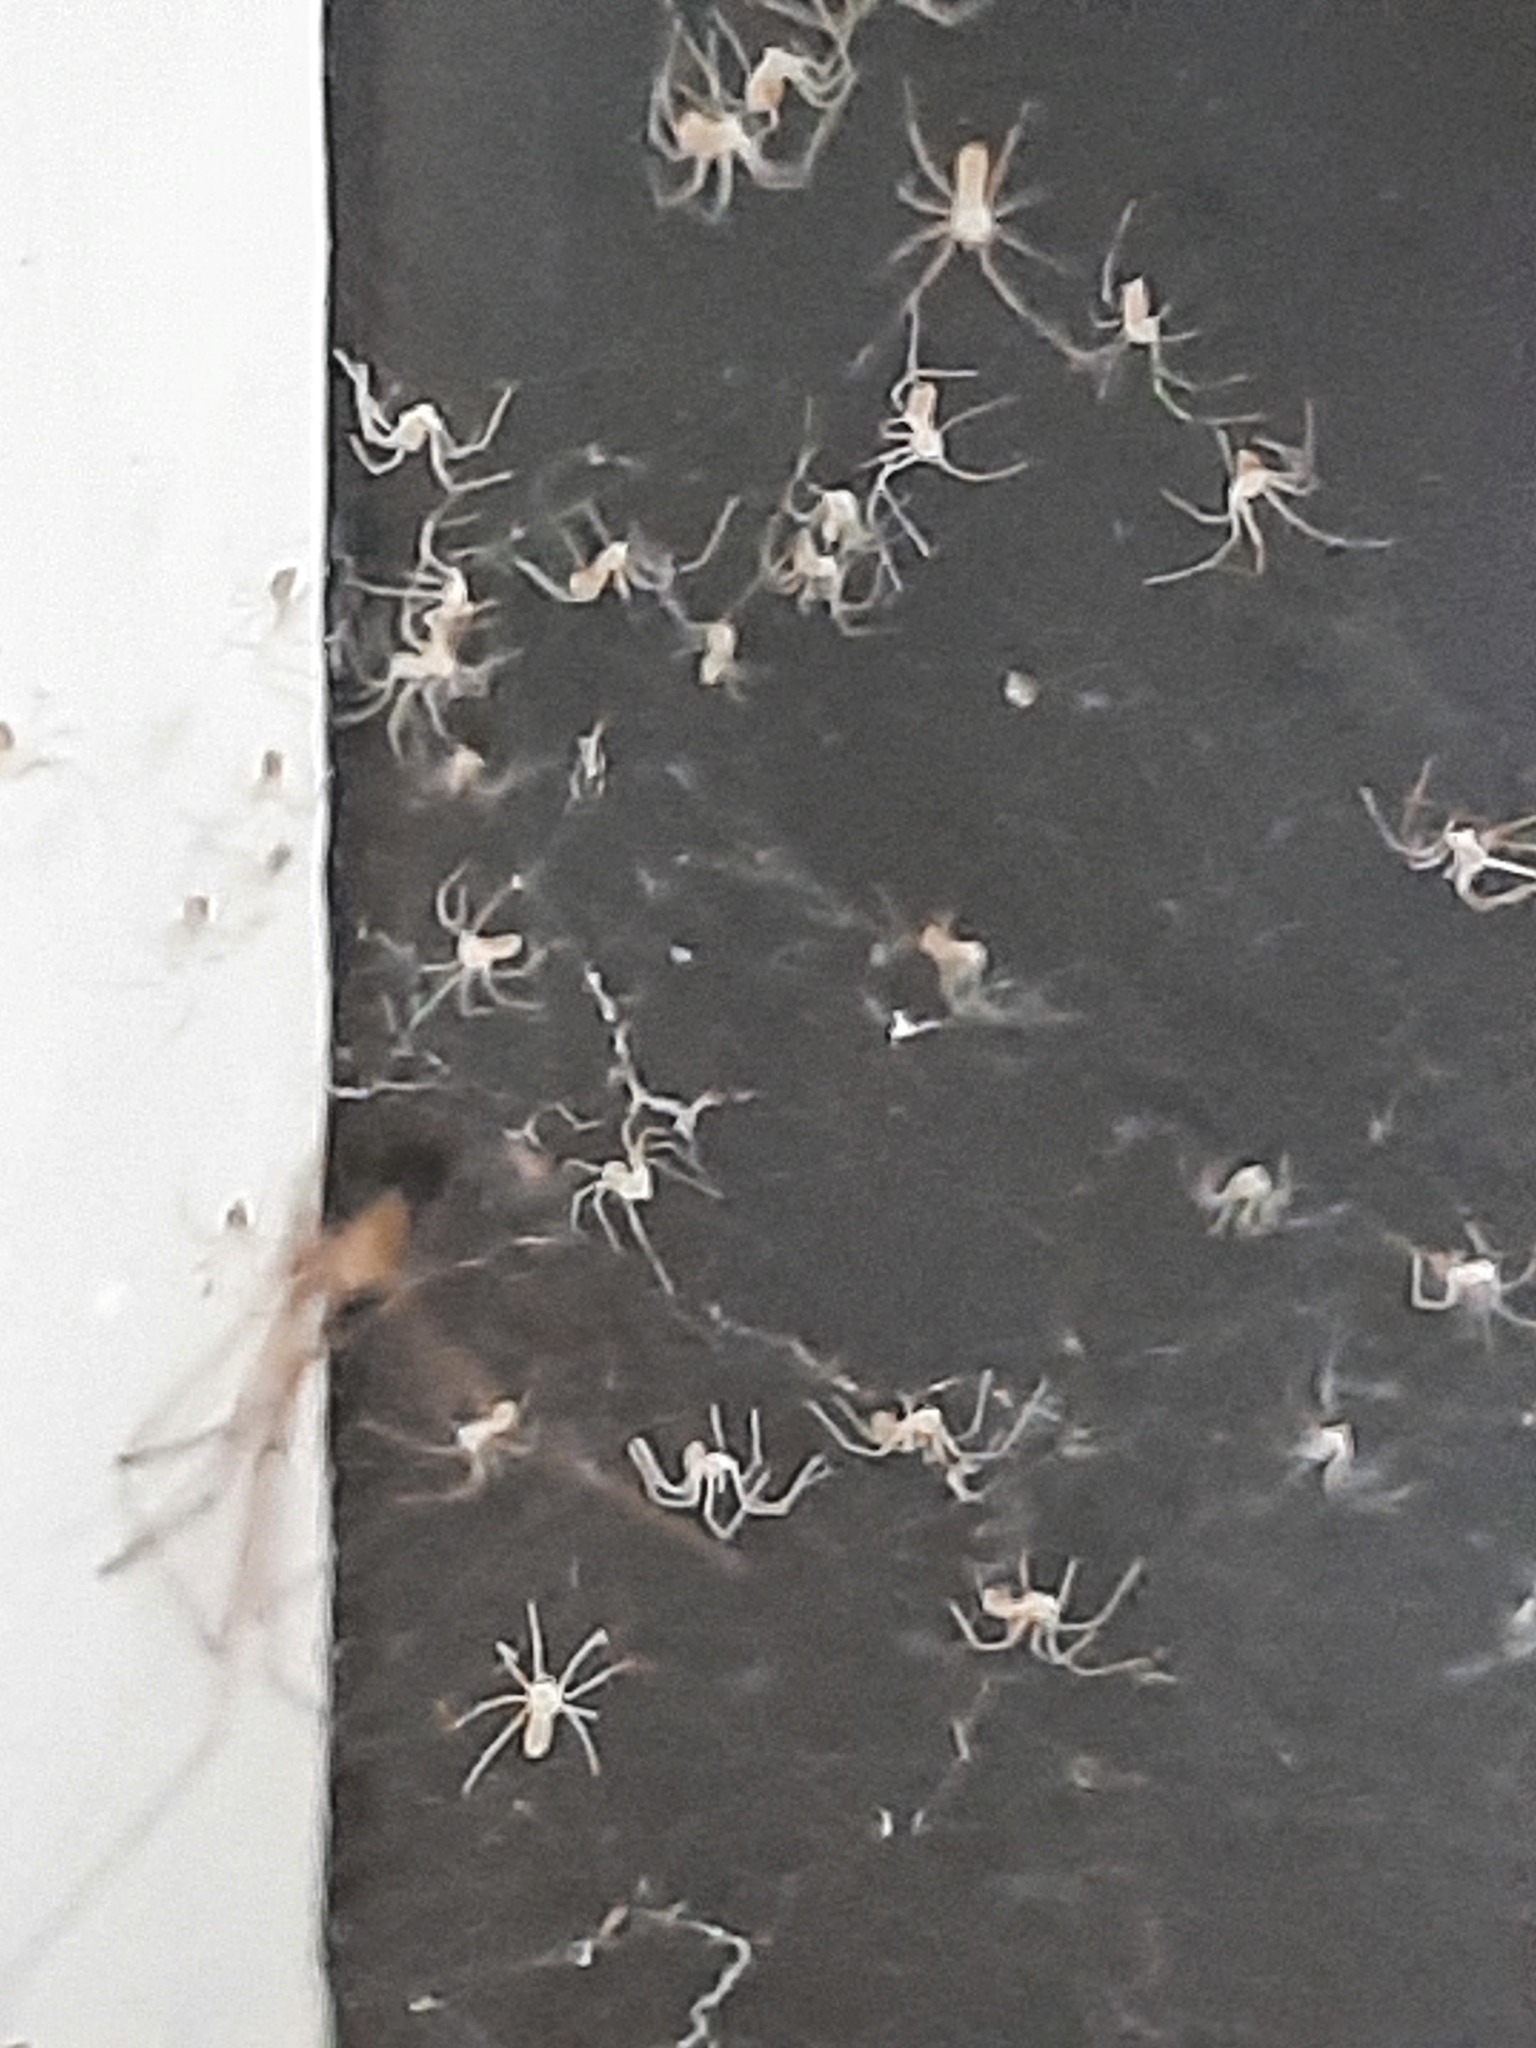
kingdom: Animalia
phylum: Arthropoda
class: Arachnida
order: Araneae
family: Pholcidae
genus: Pholcus
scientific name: Pholcus phalangioides
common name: Longbodied cellar spider
